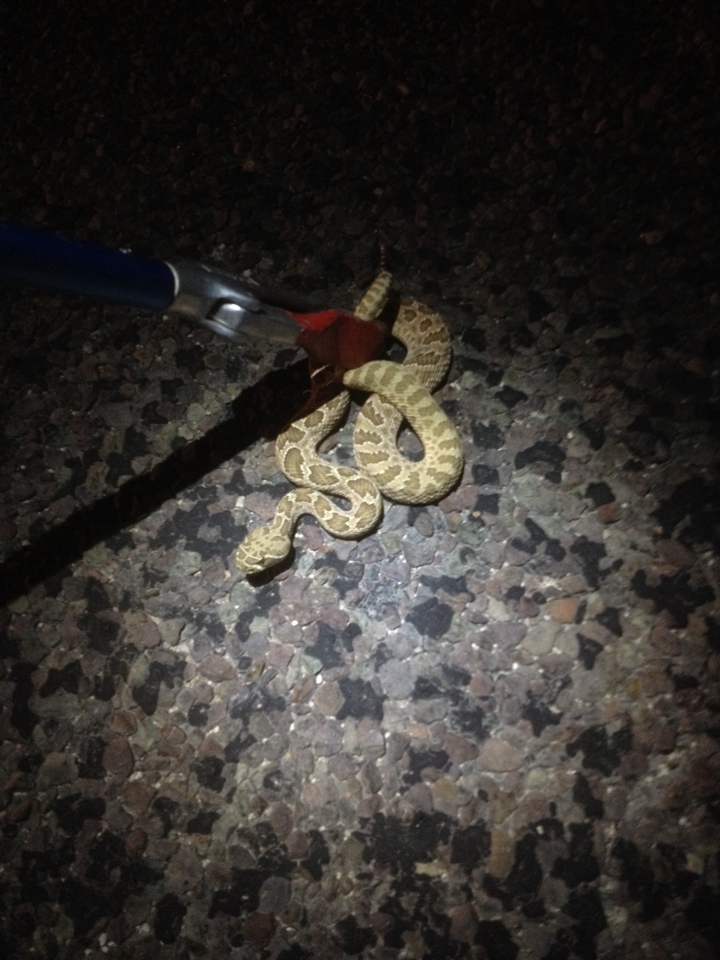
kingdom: Animalia
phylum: Chordata
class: Squamata
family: Viperidae
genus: Crotalus
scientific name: Crotalus viridis
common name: Prairie rattlesnake
